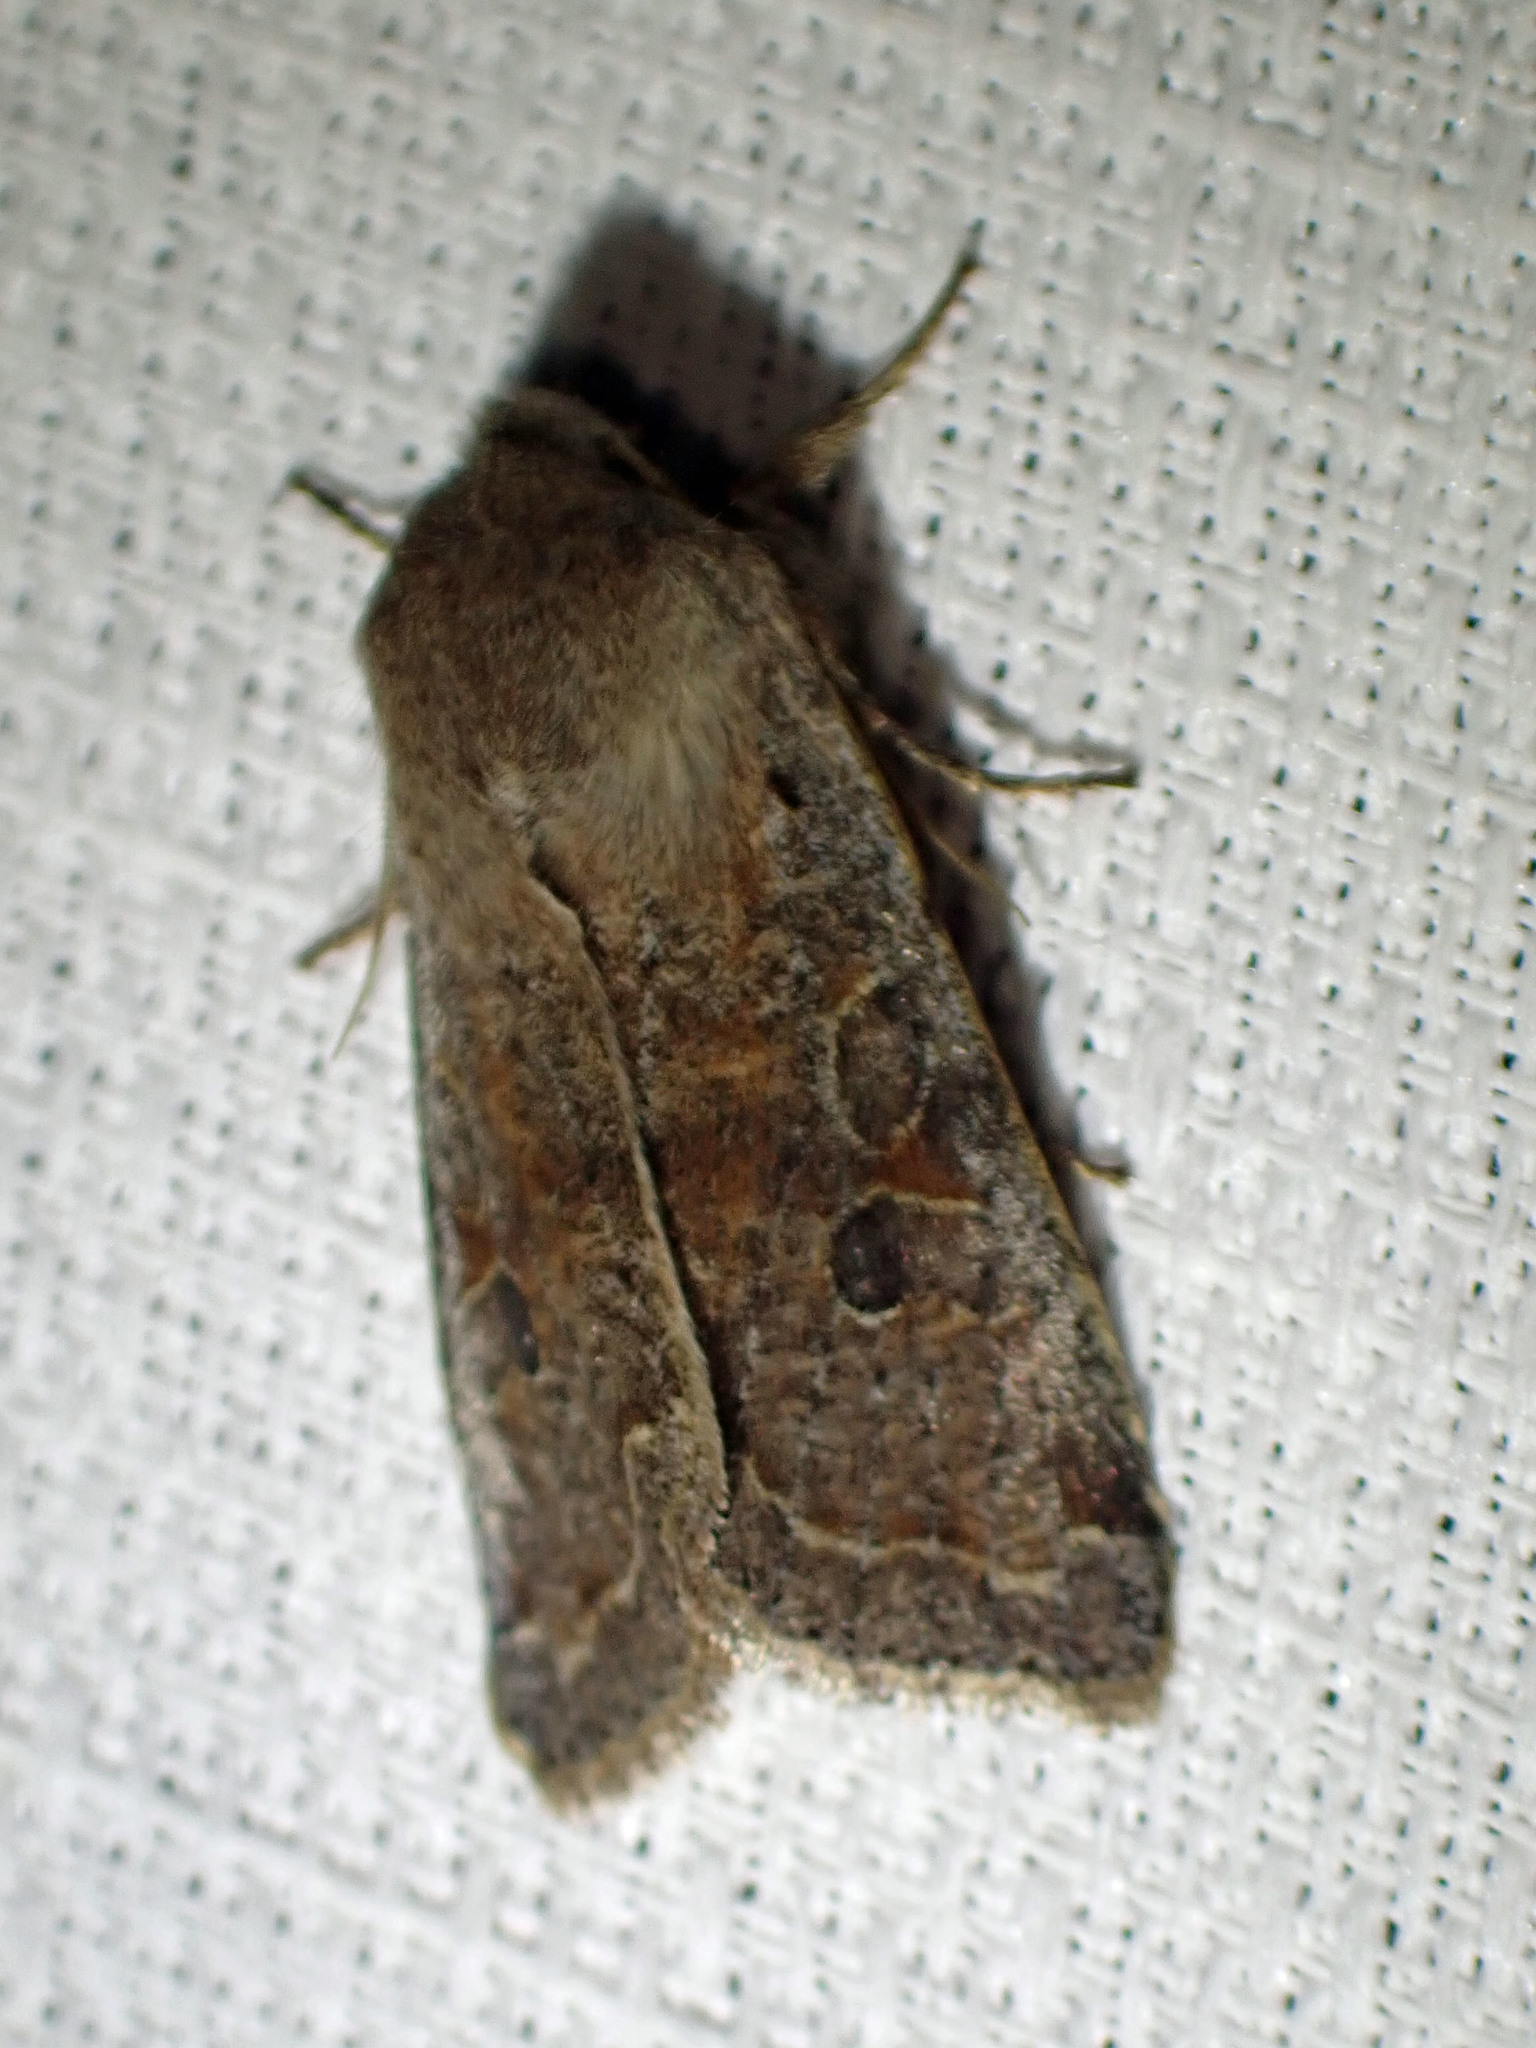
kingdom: Animalia
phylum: Arthropoda
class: Insecta
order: Lepidoptera
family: Noctuidae
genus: Orthosia
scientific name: Orthosia hibisci
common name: Green fruitworm
